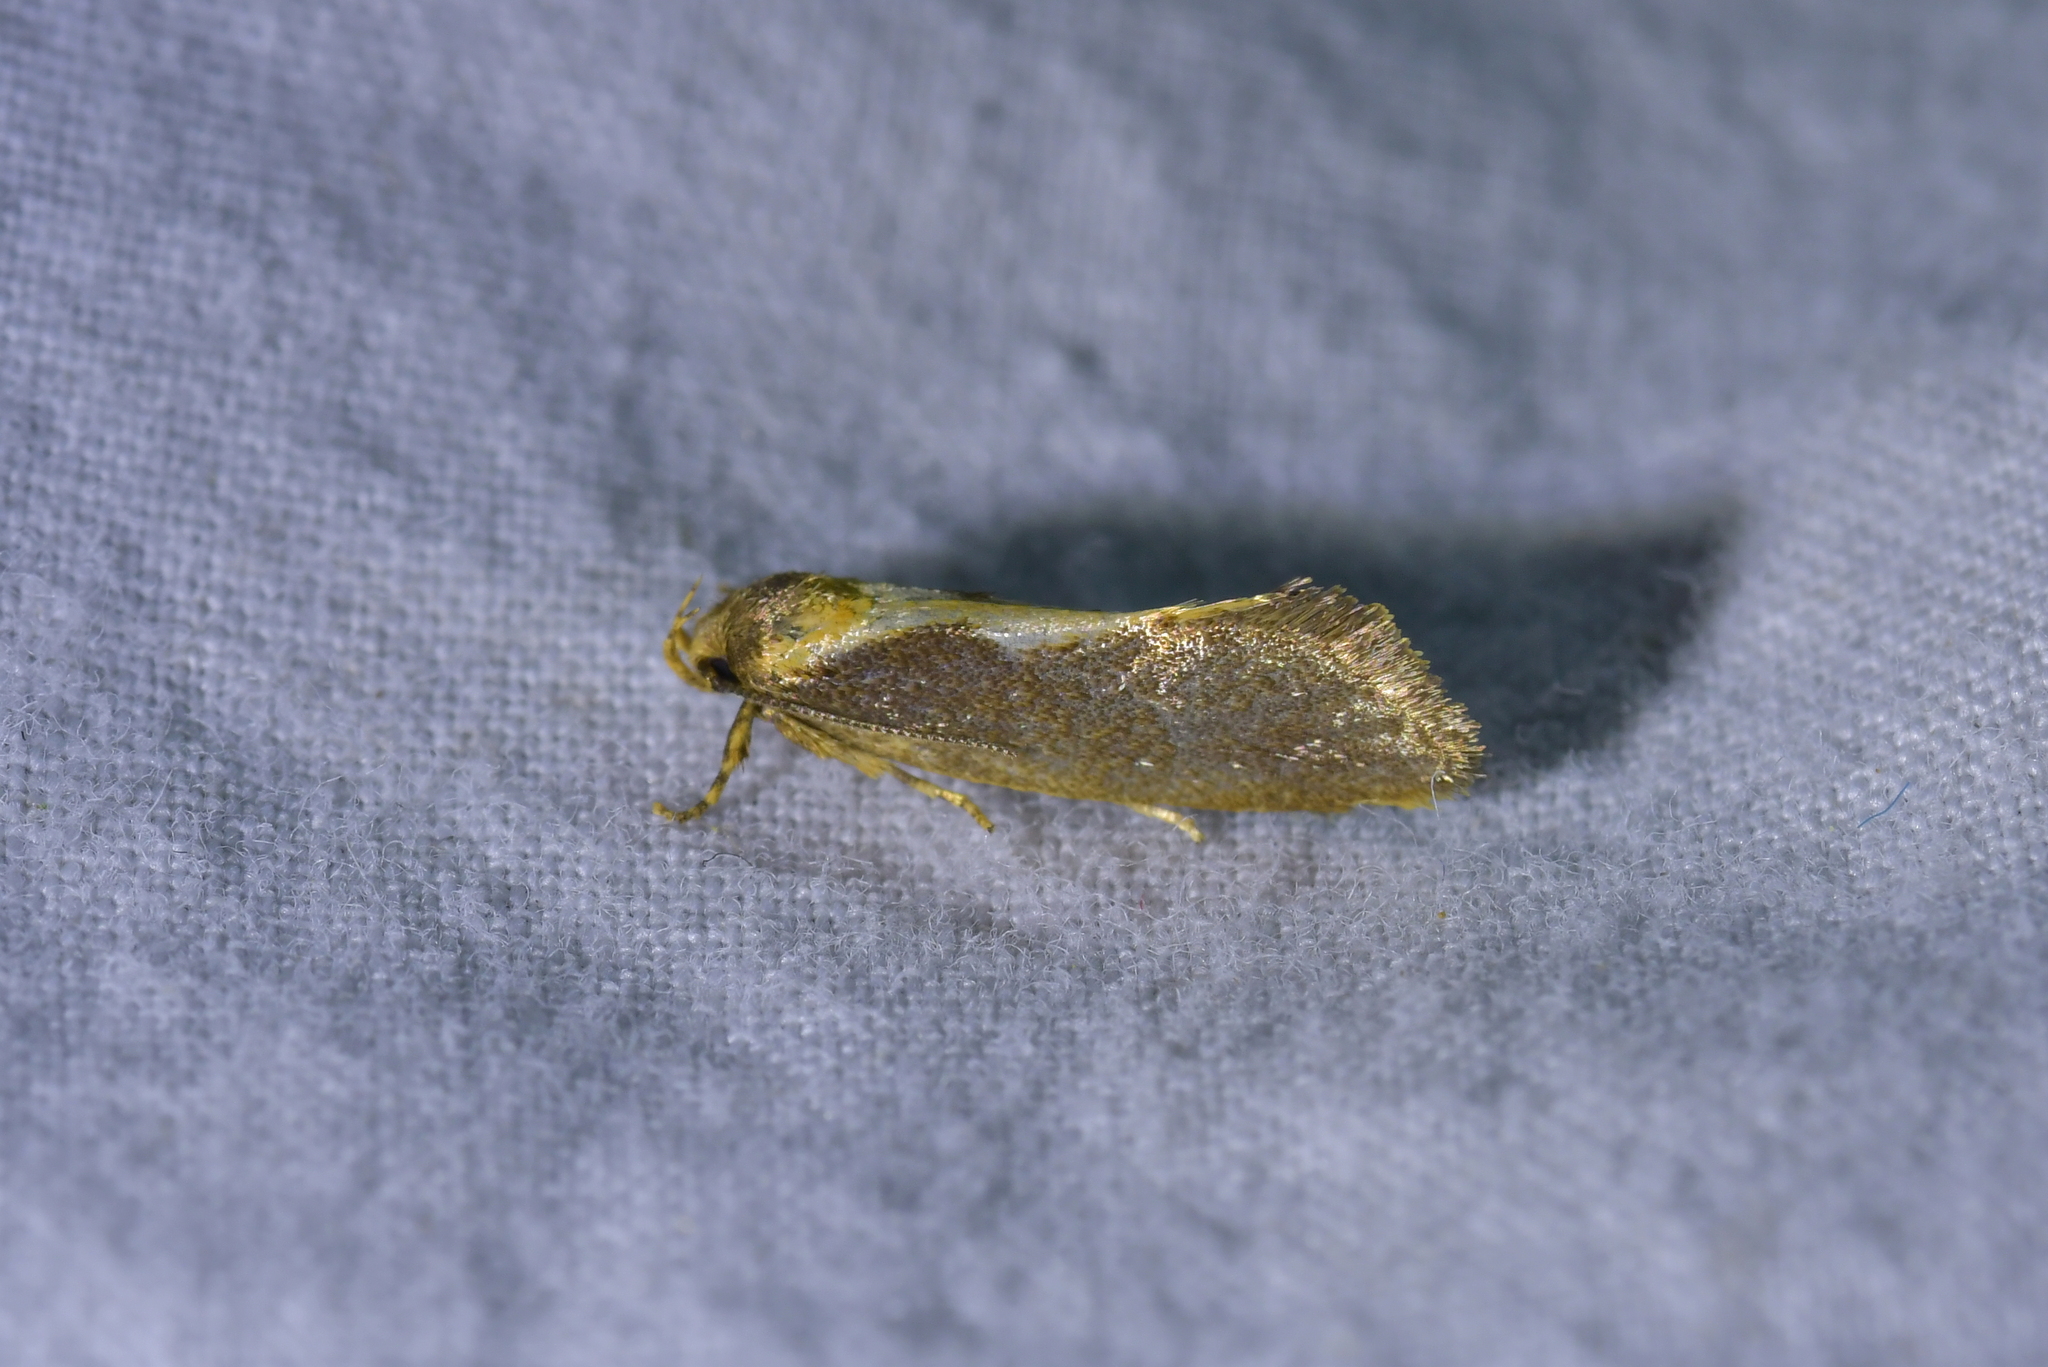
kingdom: Animalia
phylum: Arthropoda
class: Insecta
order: Lepidoptera
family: Oecophoridae
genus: Tingena
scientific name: Tingena basella
